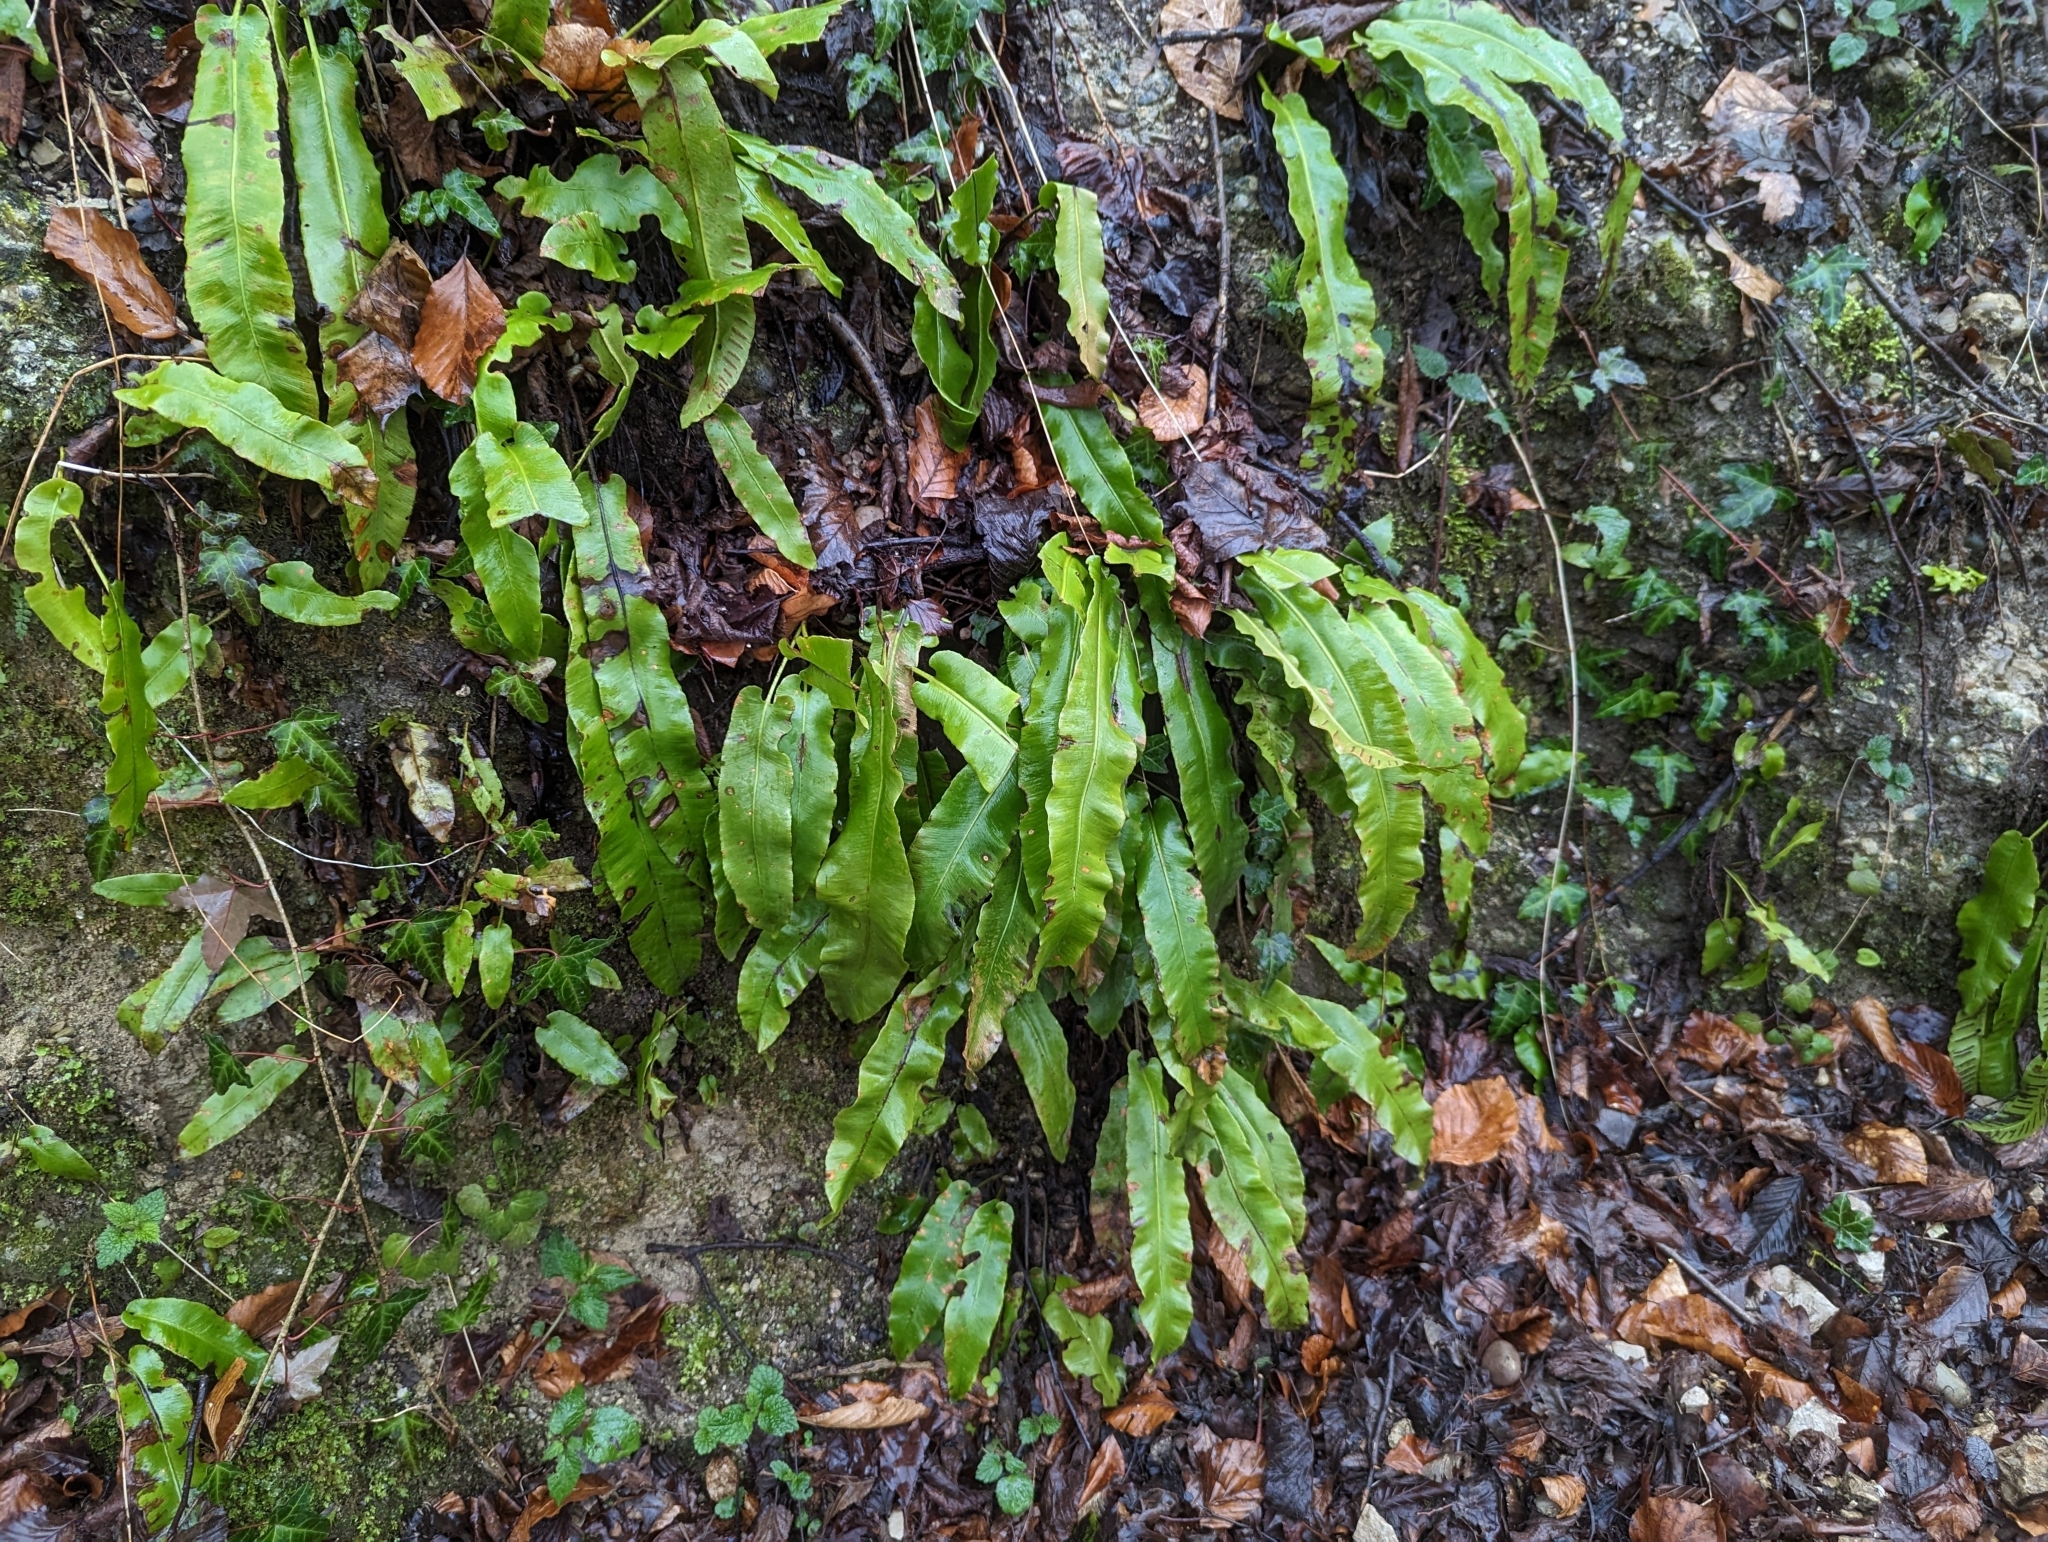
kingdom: Plantae
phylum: Tracheophyta
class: Polypodiopsida
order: Polypodiales
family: Aspleniaceae
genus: Asplenium
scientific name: Asplenium scolopendrium
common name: Hart's-tongue fern
